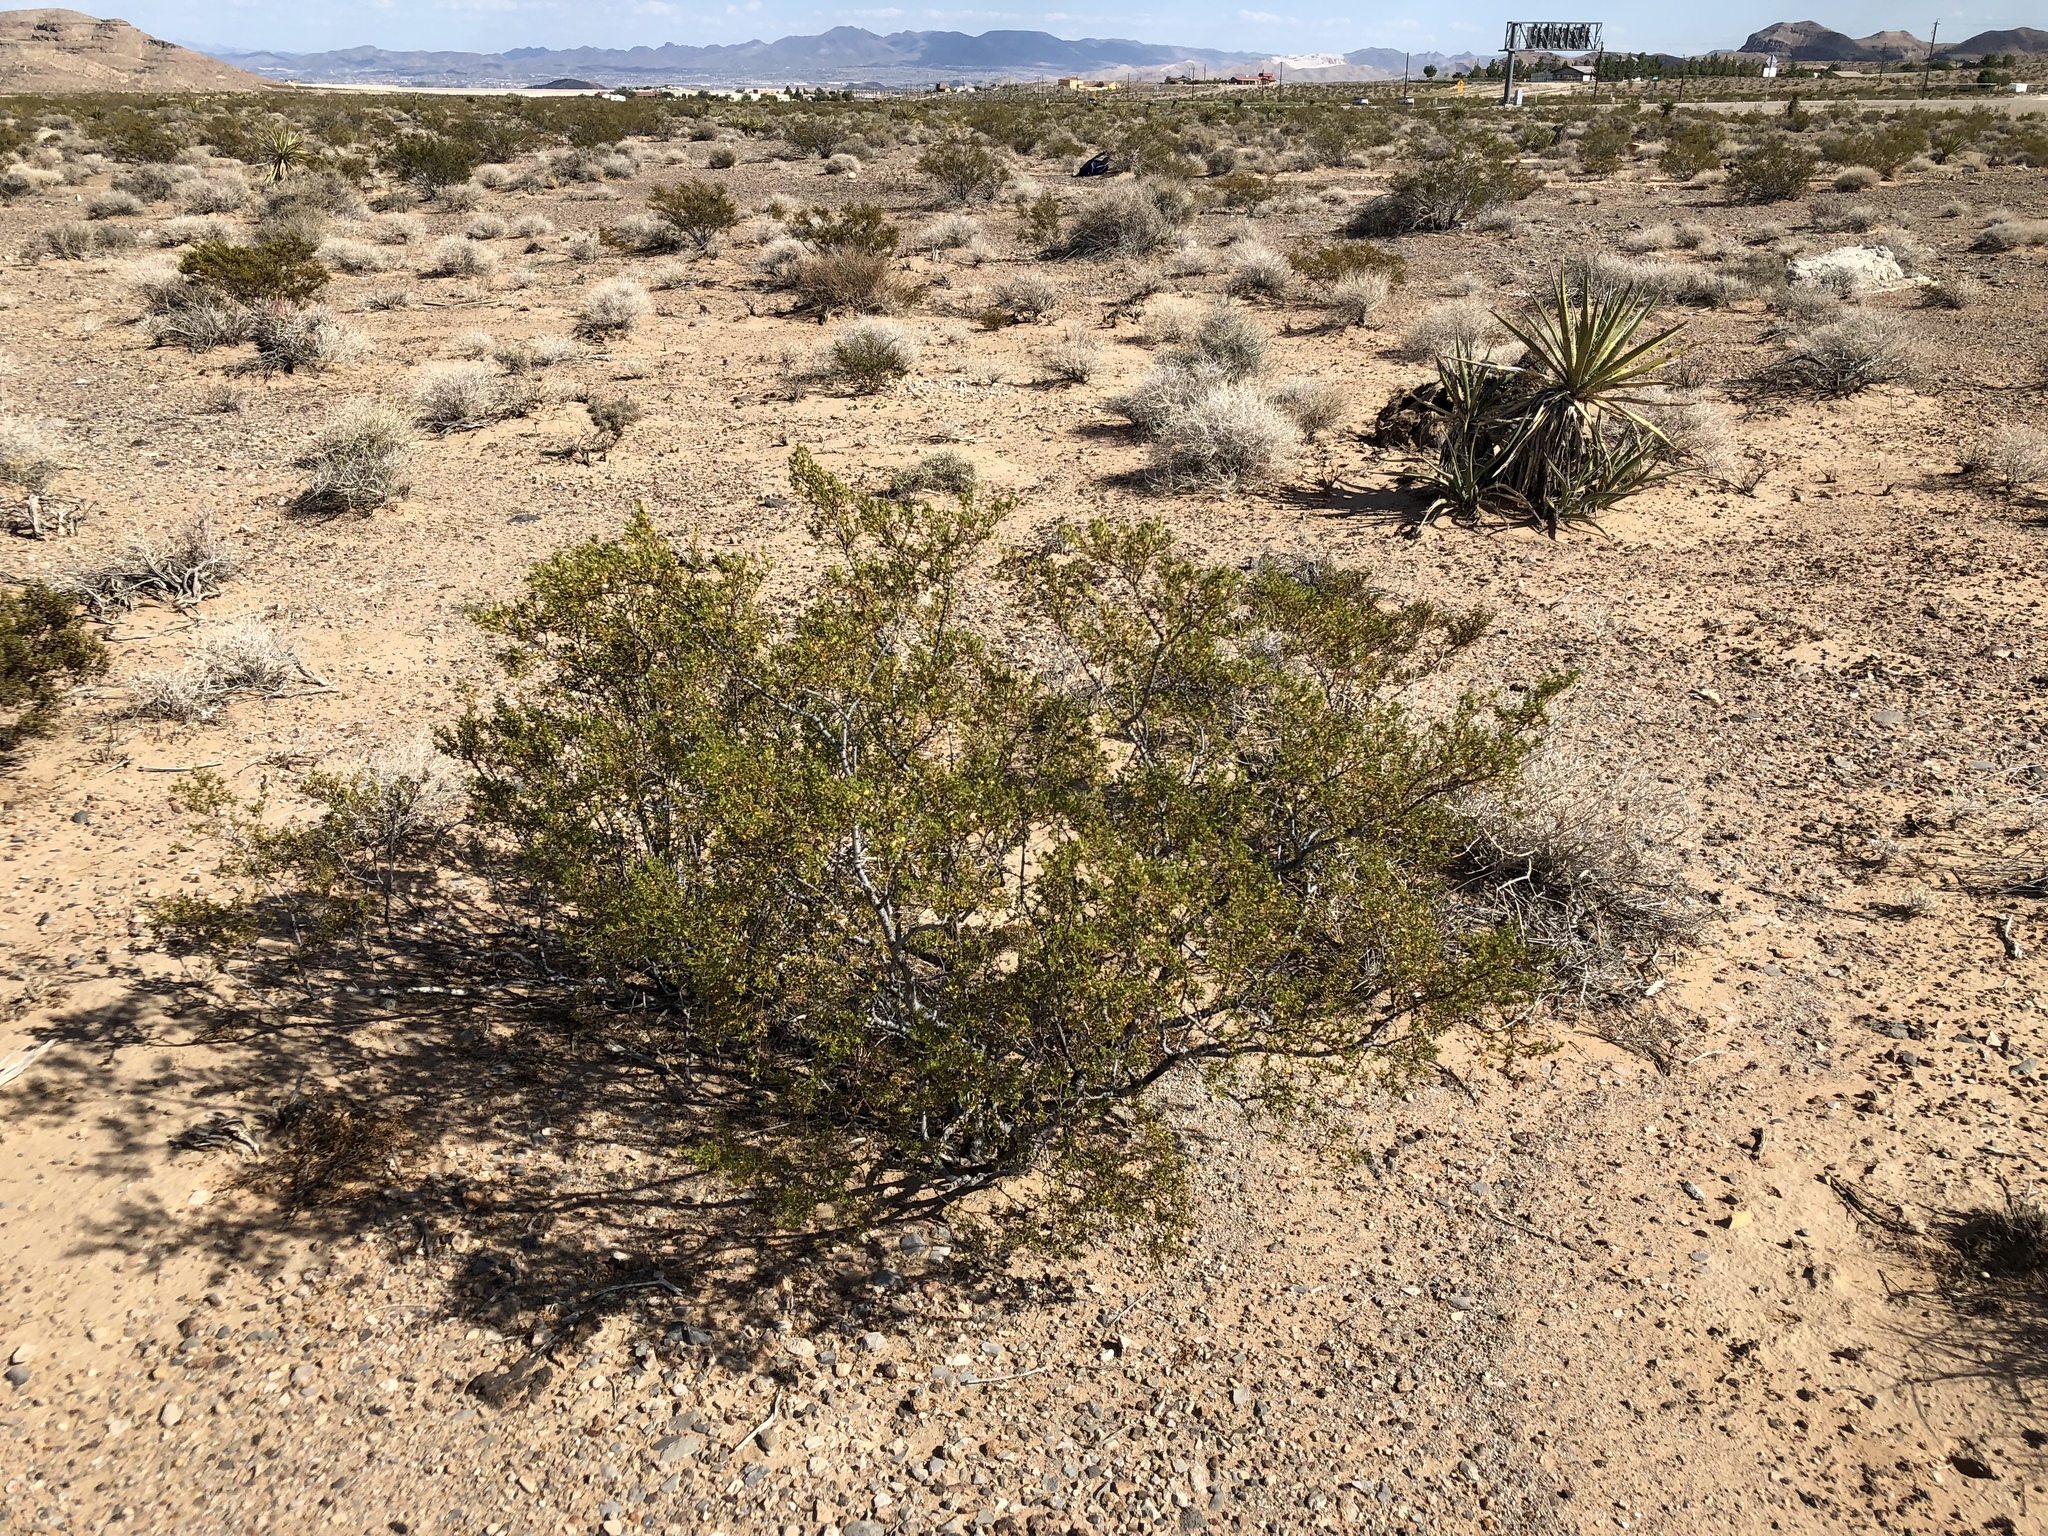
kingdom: Plantae
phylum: Tracheophyta
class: Magnoliopsida
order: Zygophyllales
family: Zygophyllaceae
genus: Larrea
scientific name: Larrea tridentata
